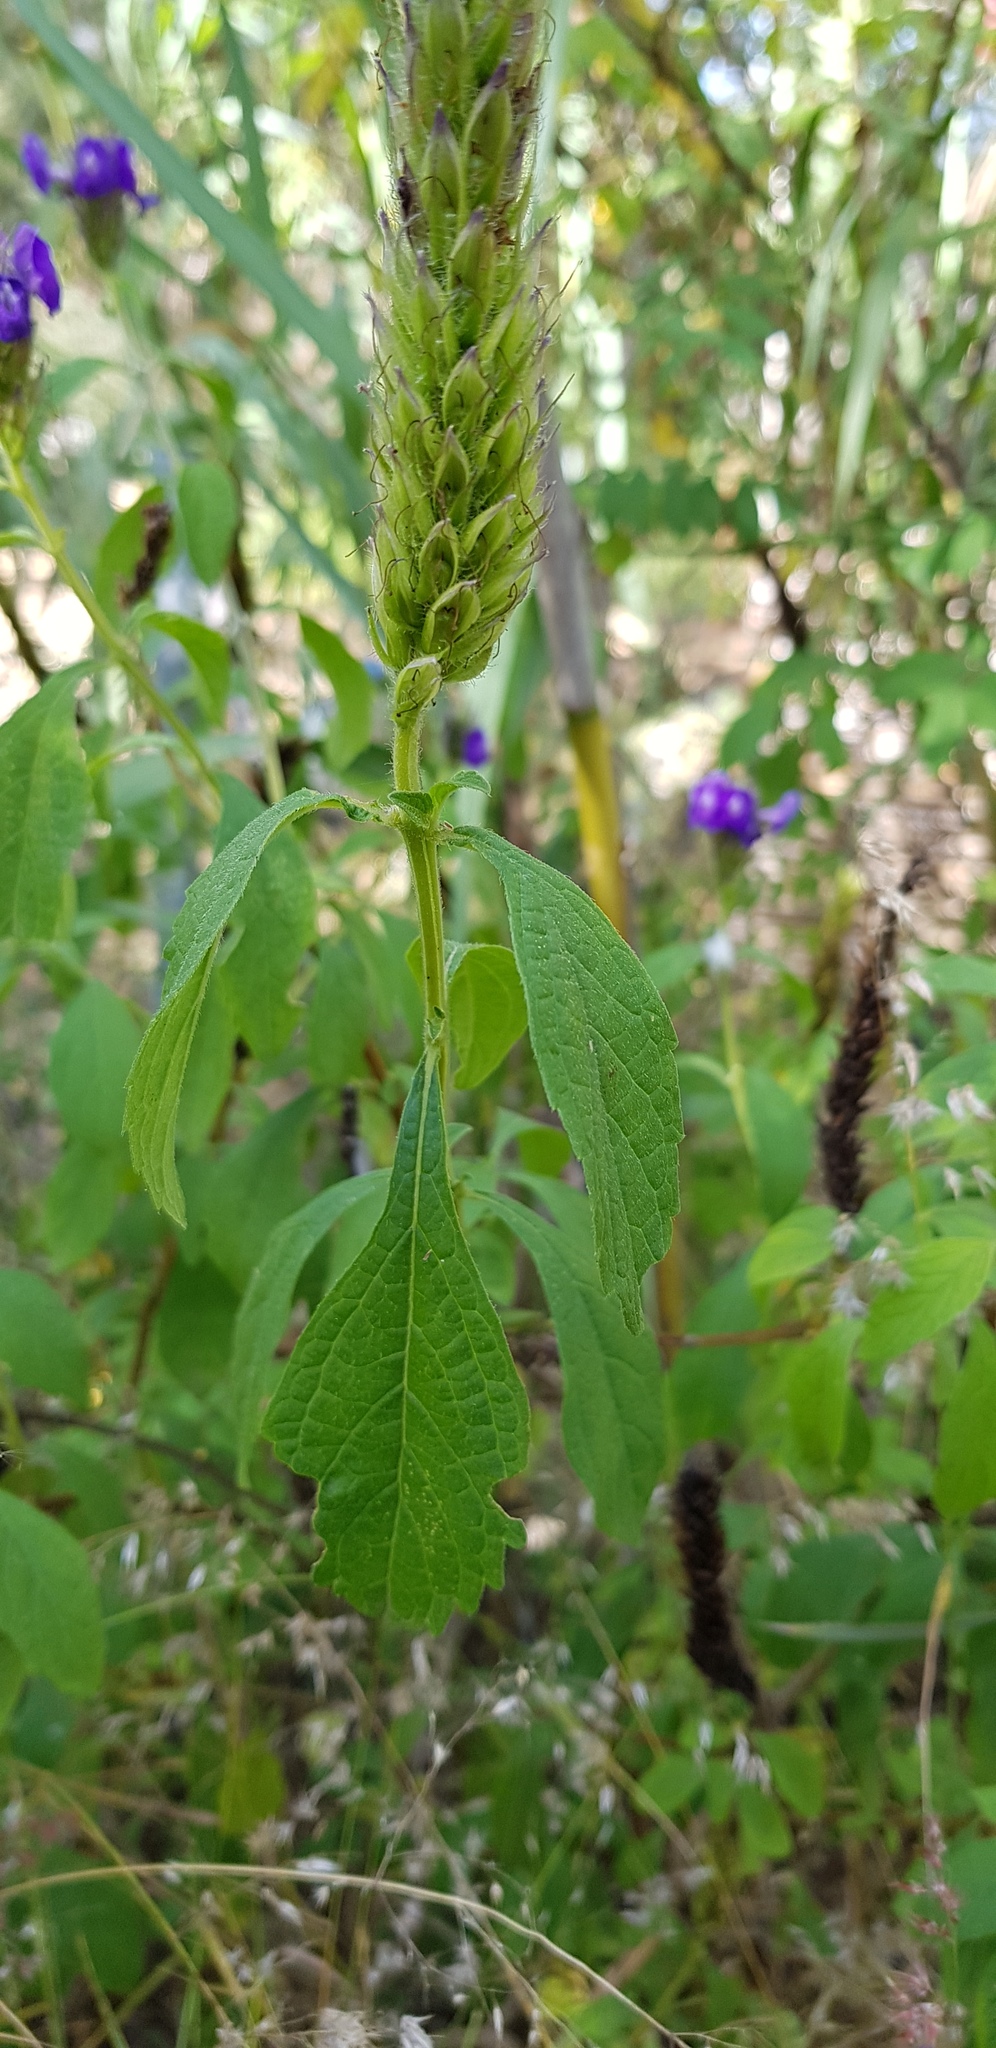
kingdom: Plantae
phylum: Tracheophyta
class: Magnoliopsida
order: Lamiales
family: Verbenaceae
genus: Stachytarpheta
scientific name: Stachytarpheta acuminata
